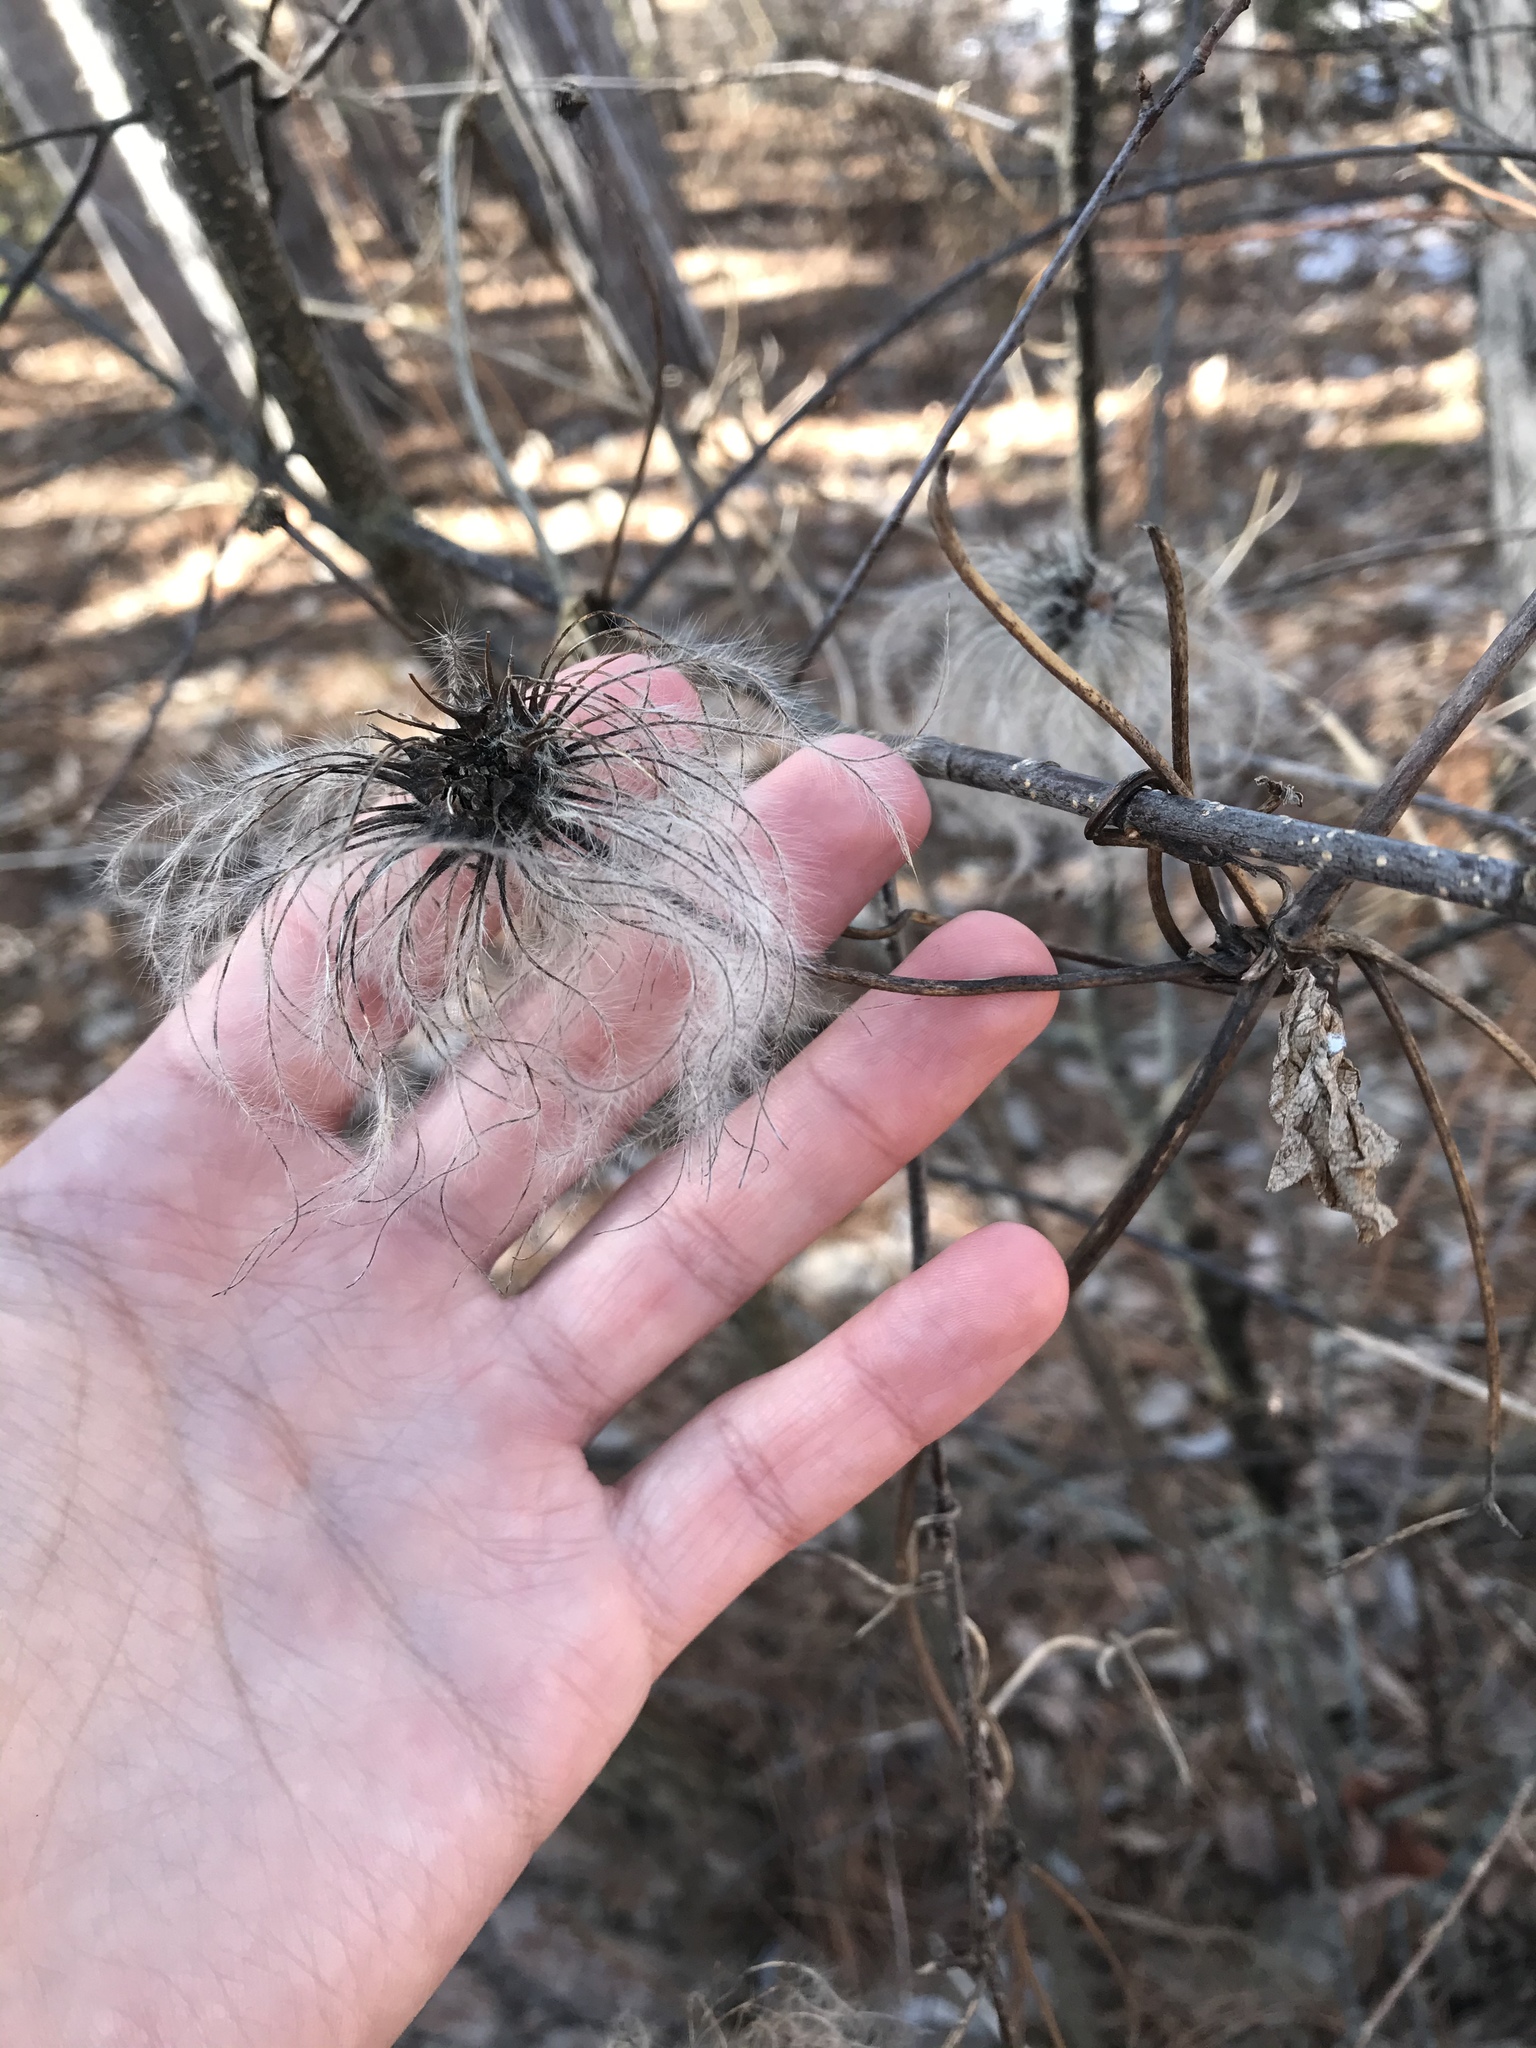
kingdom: Plantae
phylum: Tracheophyta
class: Magnoliopsida
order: Ranunculales
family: Ranunculaceae
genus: Clematis
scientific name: Clematis virginiana
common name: Virgin's-bower
